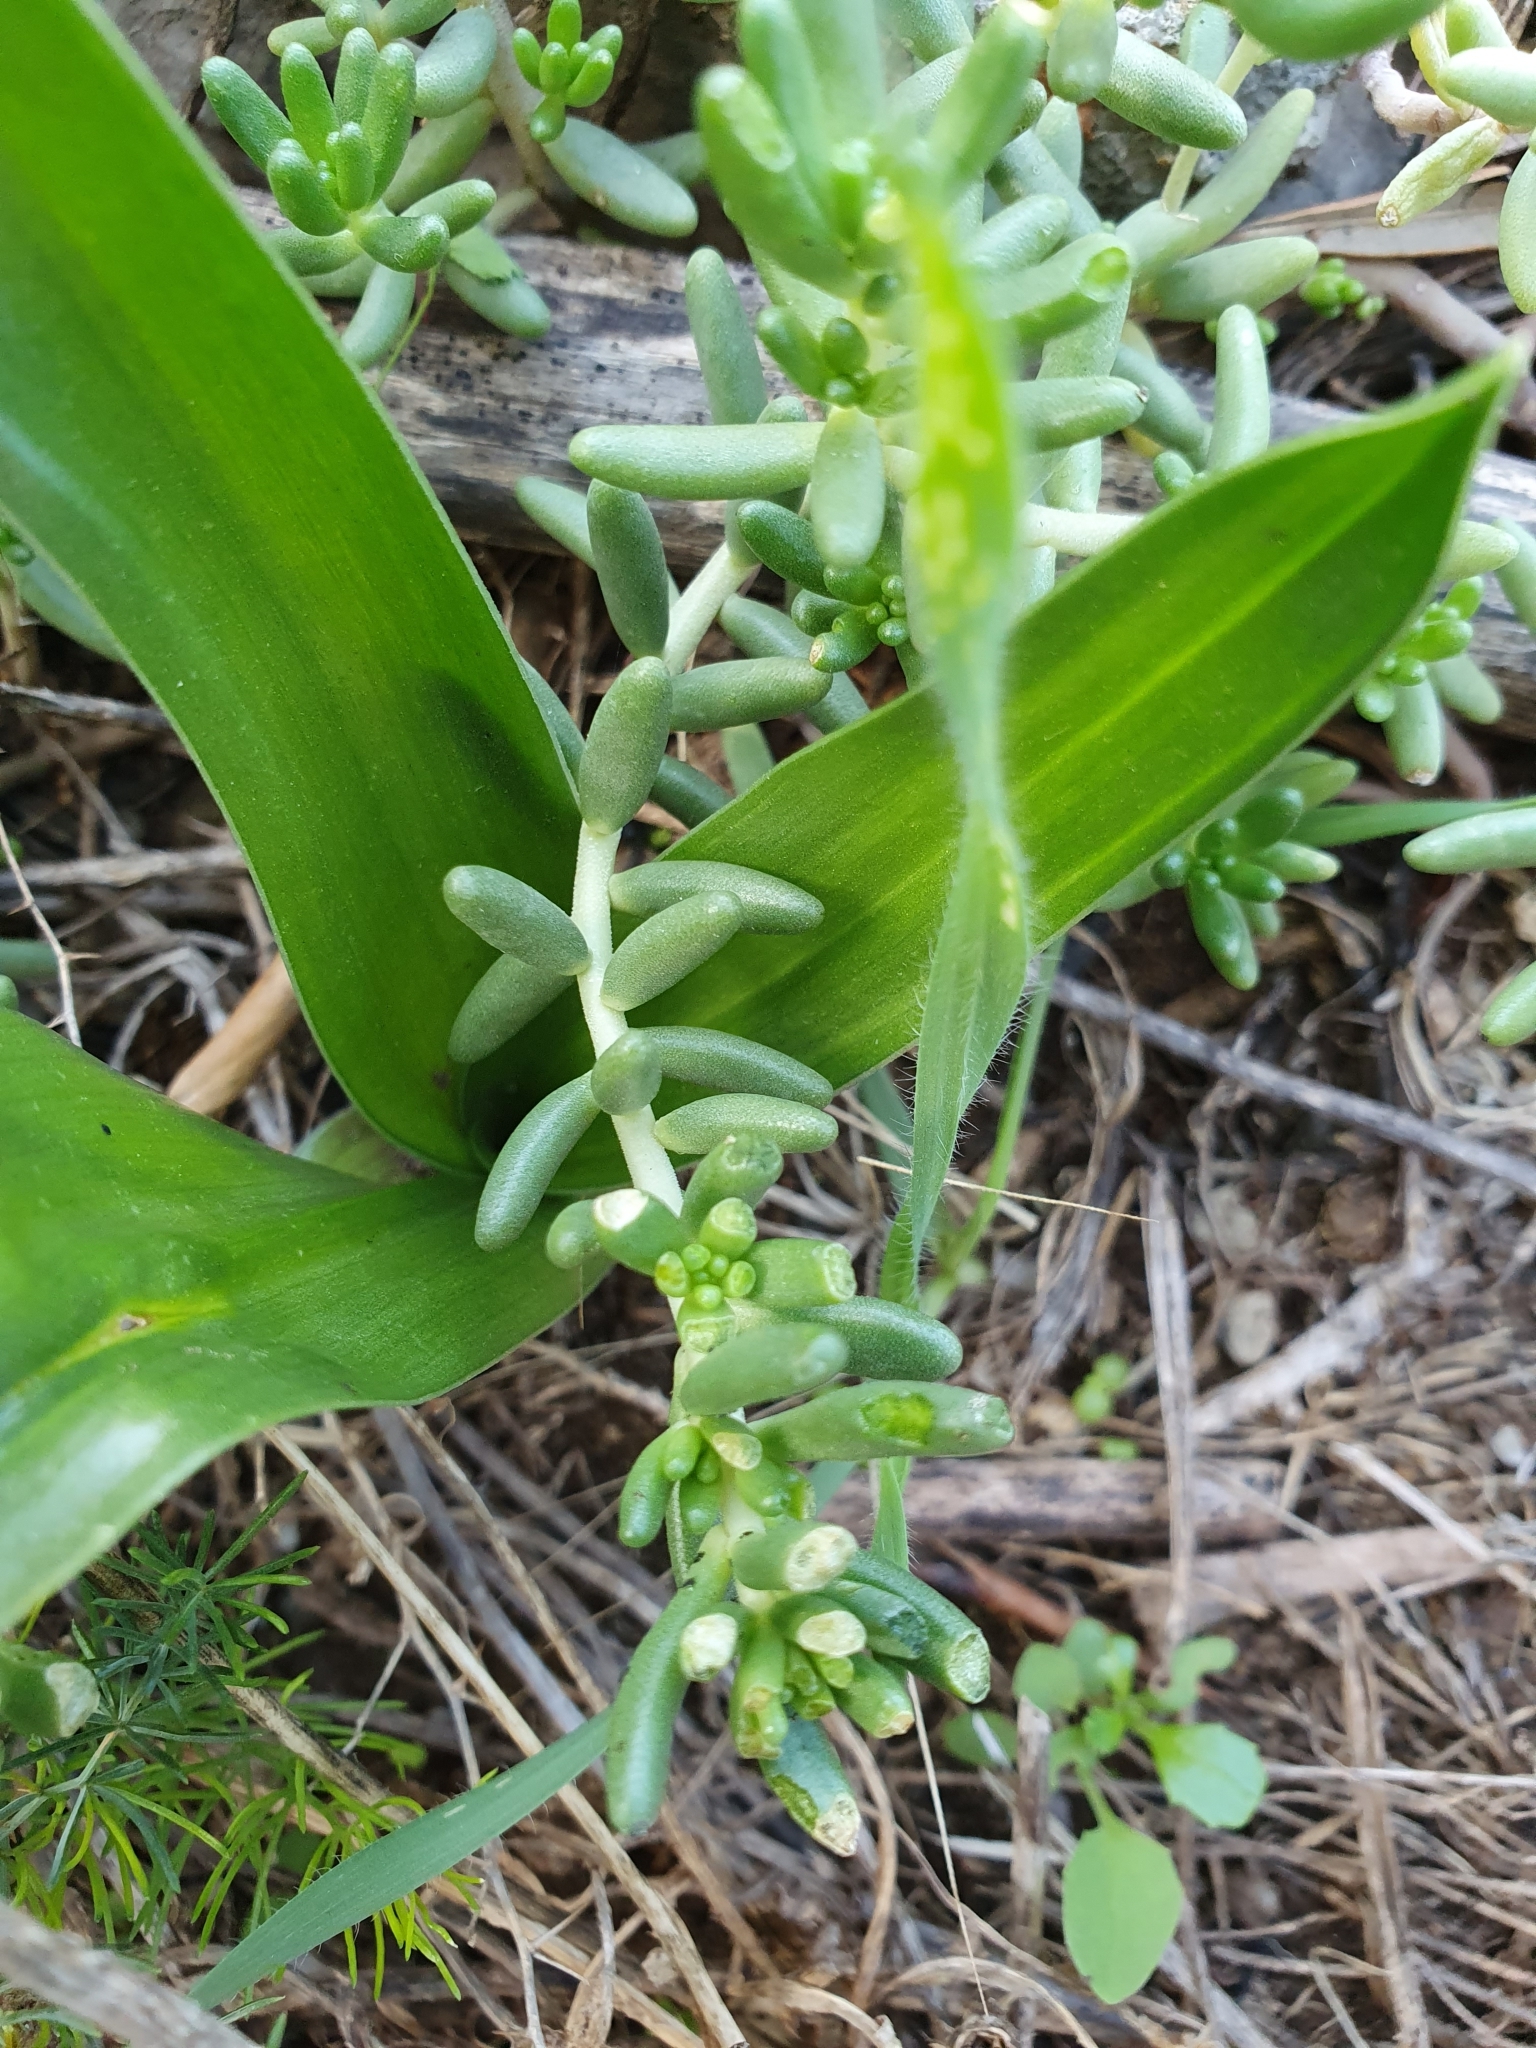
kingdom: Plantae
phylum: Tracheophyta
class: Magnoliopsida
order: Saxifragales
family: Crassulaceae
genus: Sedum
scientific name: Sedum album
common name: White stonecrop
